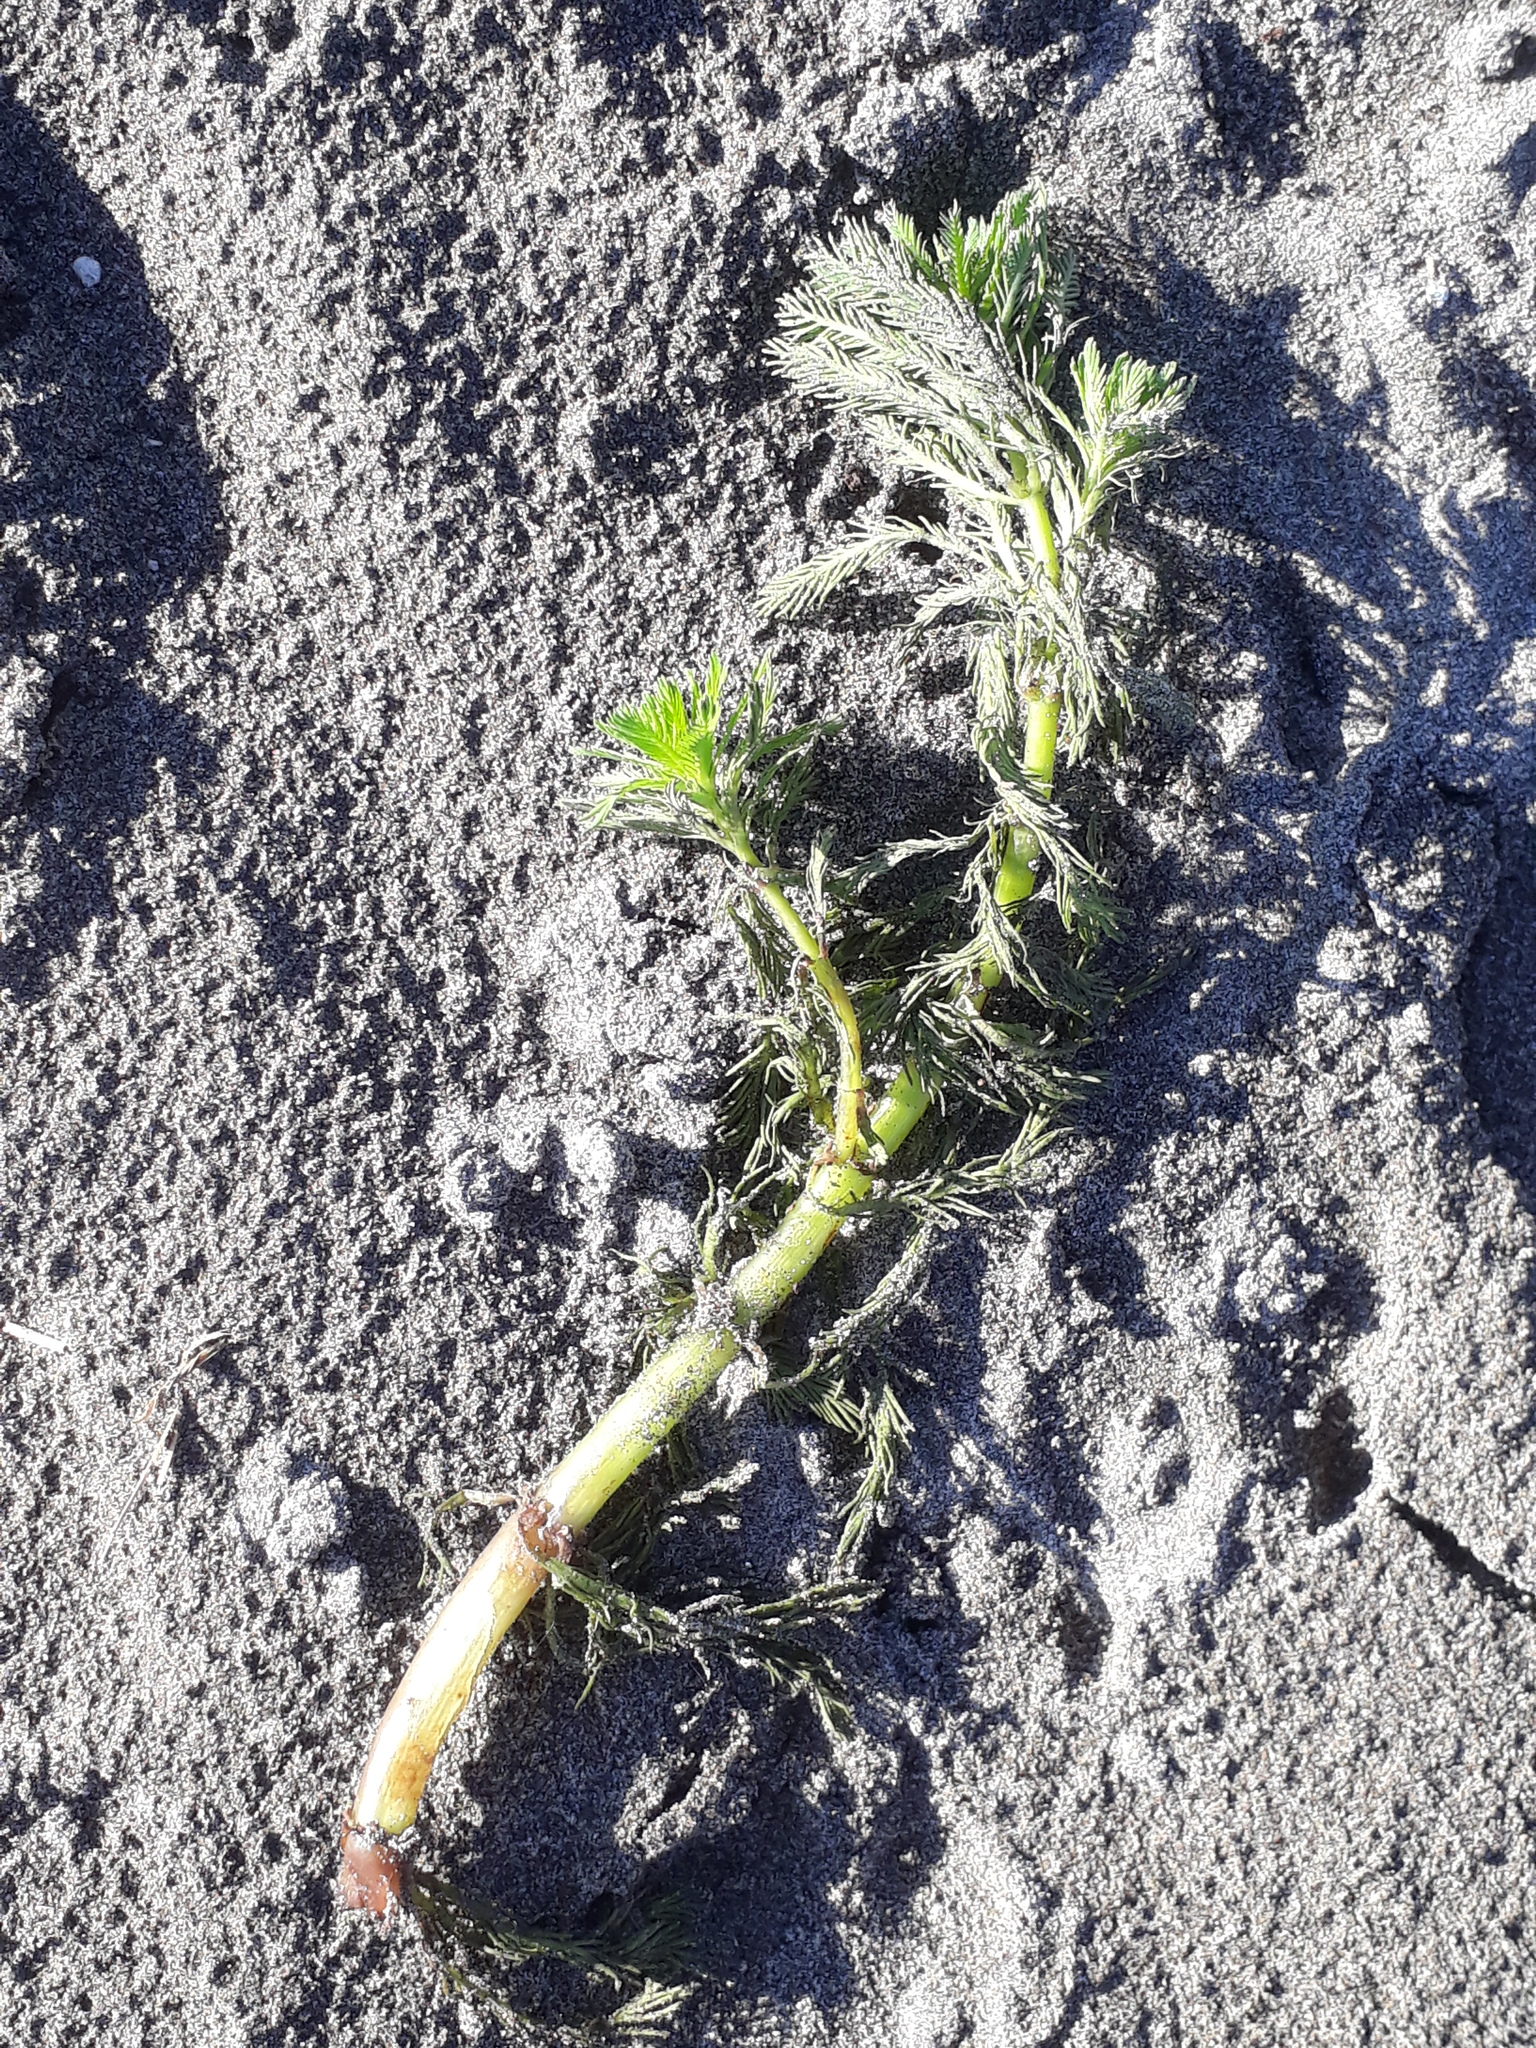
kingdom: Plantae
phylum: Tracheophyta
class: Magnoliopsida
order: Saxifragales
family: Haloragaceae
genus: Myriophyllum
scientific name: Myriophyllum aquaticum
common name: Parrot's feather
